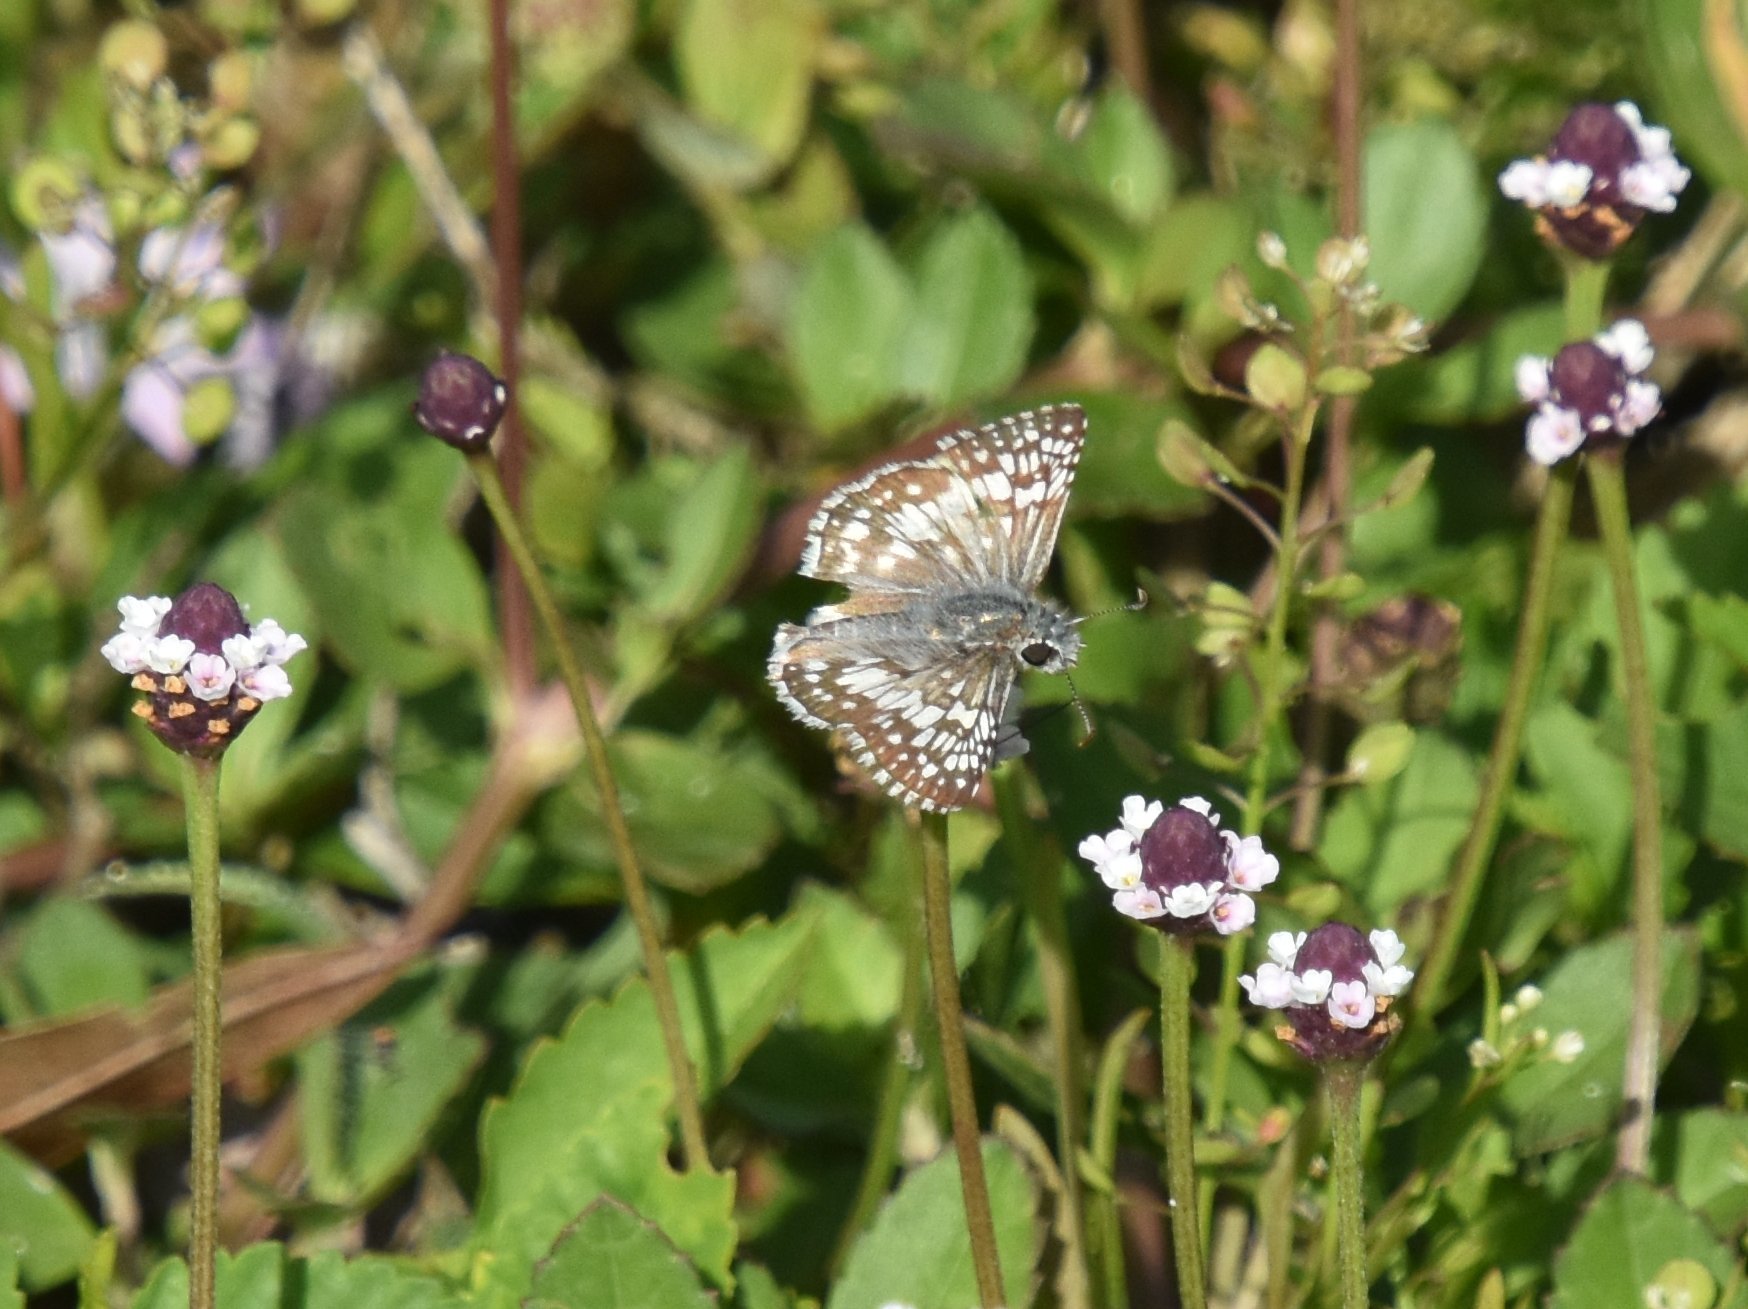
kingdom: Animalia
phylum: Arthropoda
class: Insecta
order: Lepidoptera
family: Hesperiidae
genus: Burnsius
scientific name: Burnsius albezens
